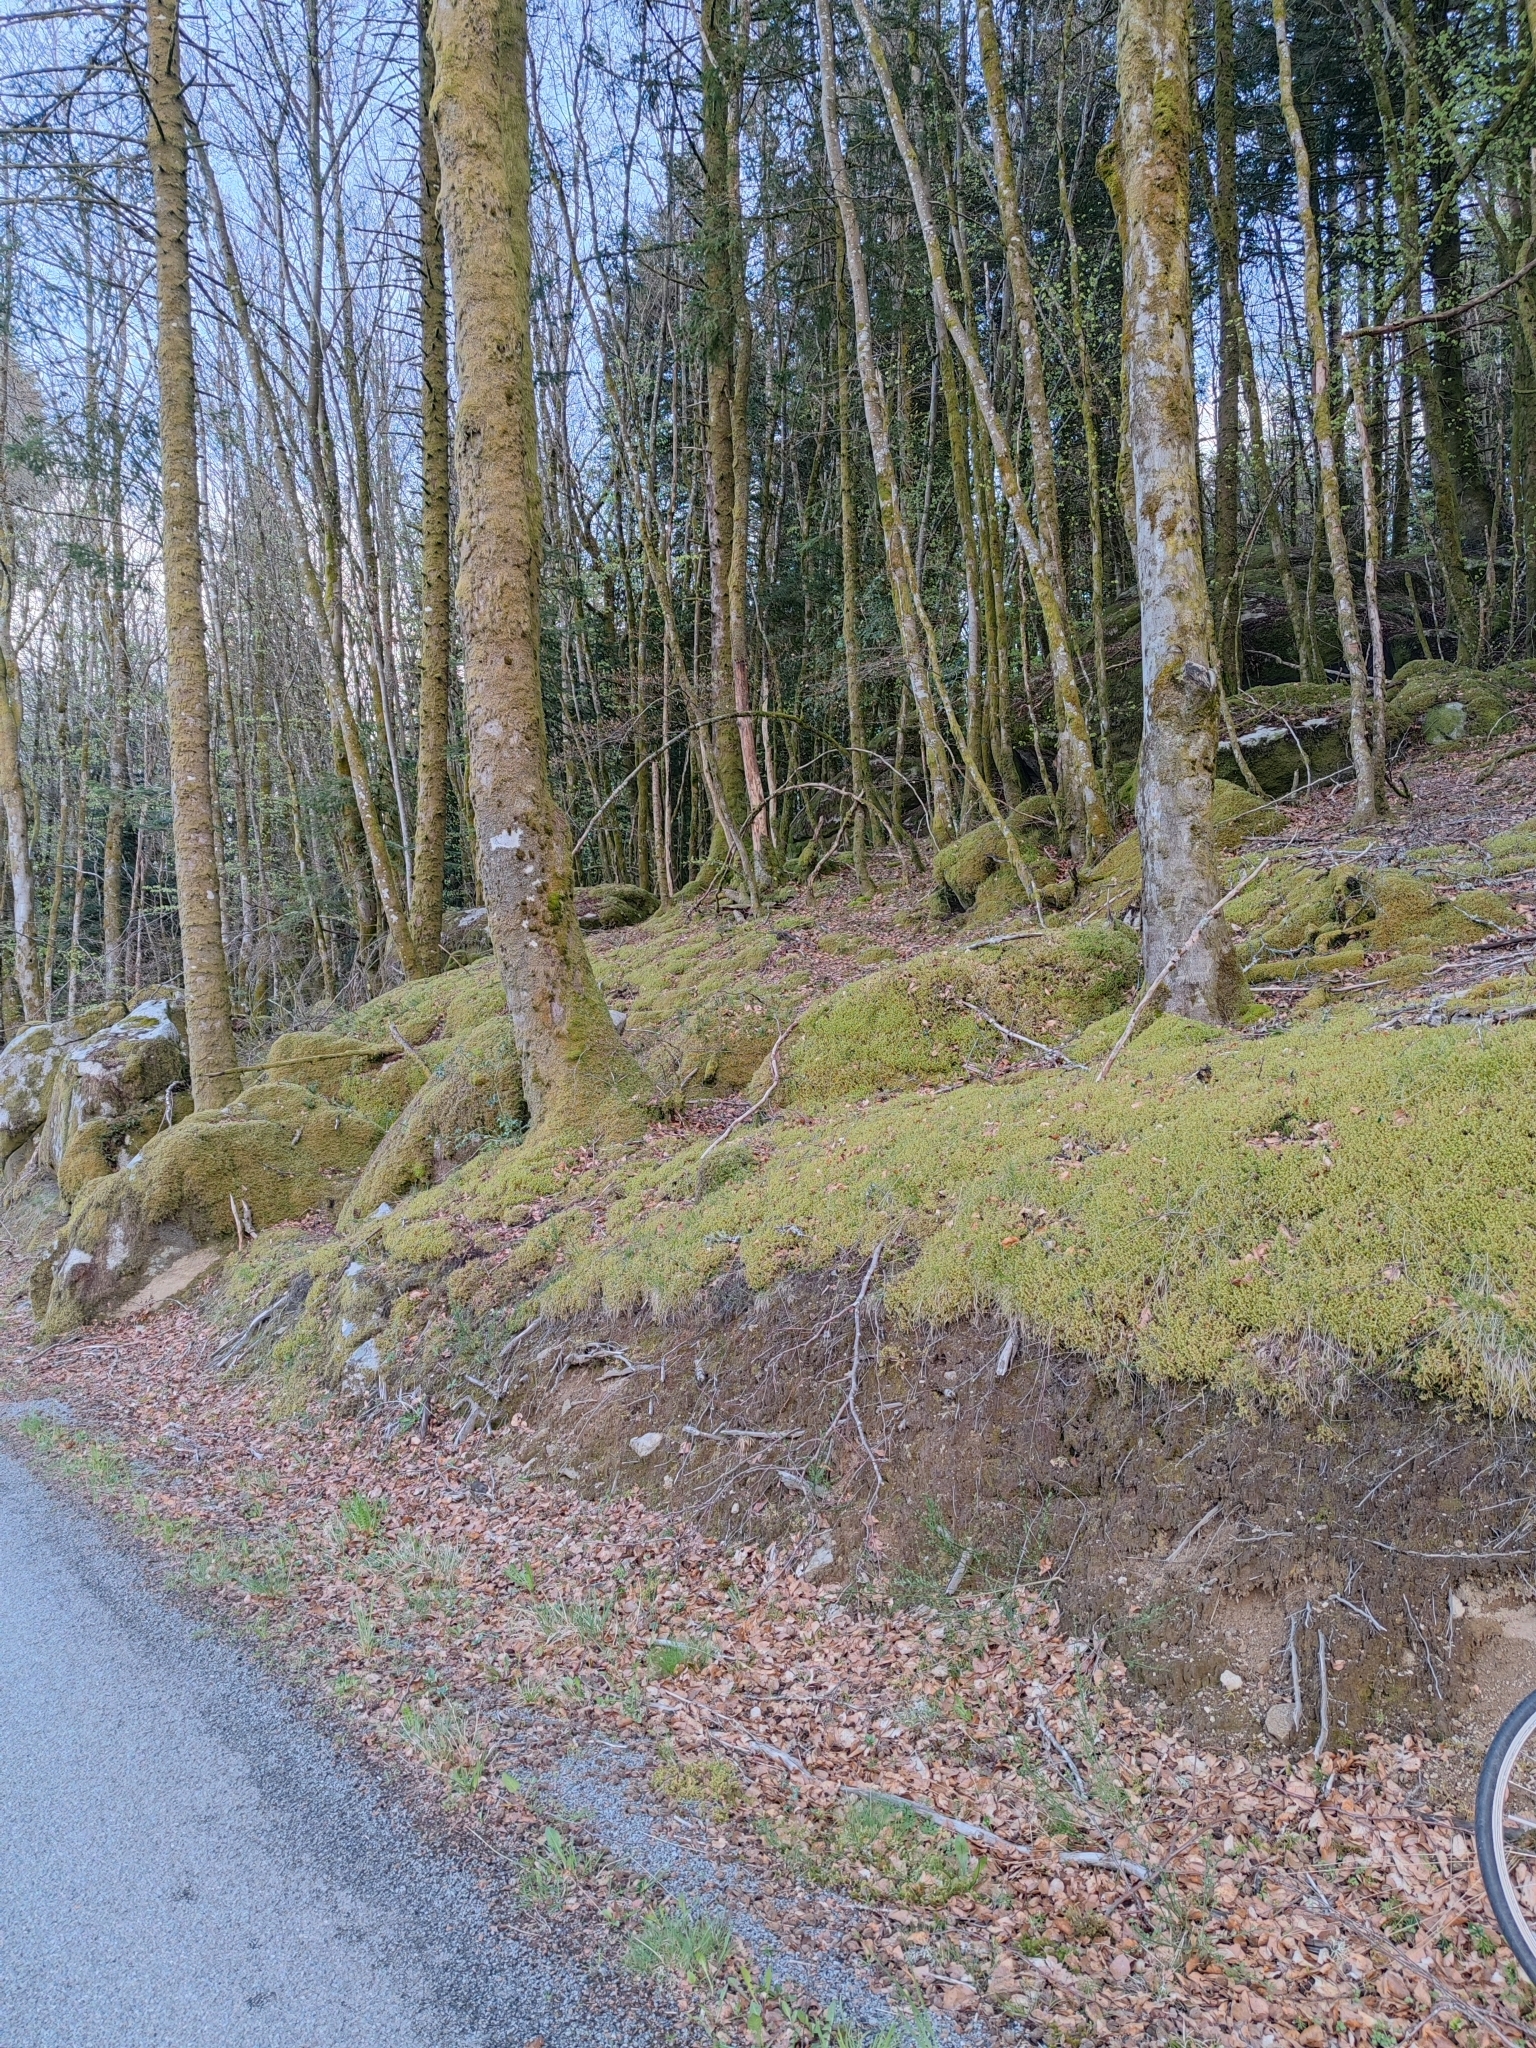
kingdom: Plantae
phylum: Bryophyta
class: Bryopsida
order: Hypnales
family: Hylocomiaceae
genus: Hylocomiadelphus
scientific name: Hylocomiadelphus triquetrus
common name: Rough goose neck moss
